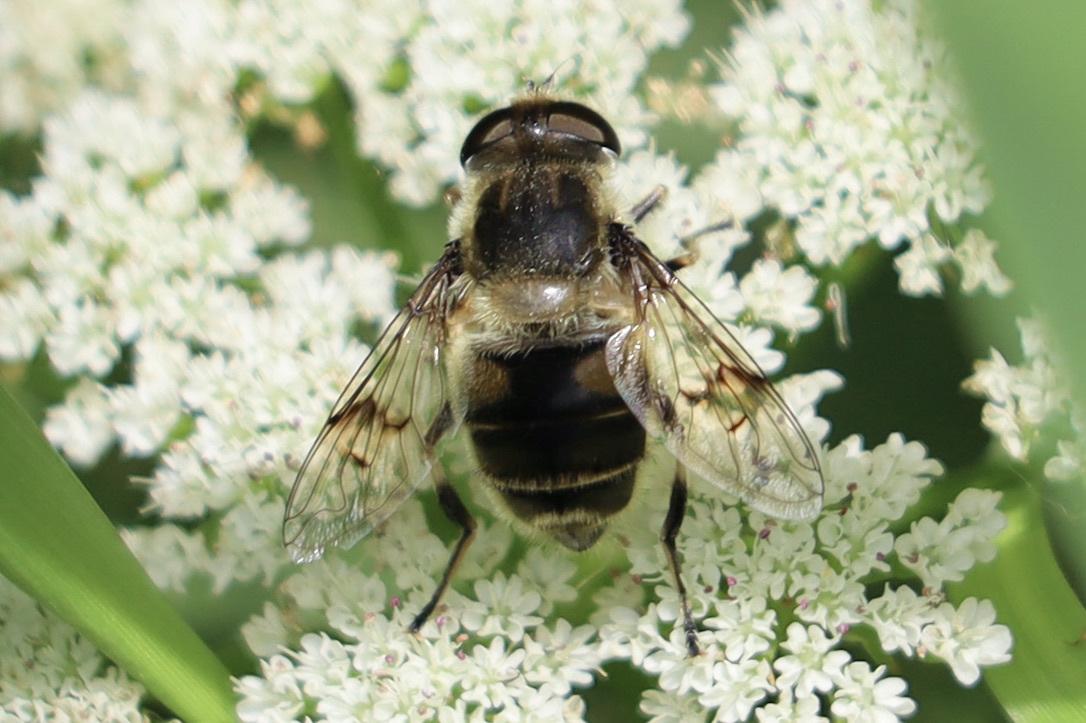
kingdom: Animalia
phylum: Arthropoda
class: Insecta
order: Diptera
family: Syrphidae
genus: Eristalis
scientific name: Eristalis anthophorina
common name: Orange-spotted drone fly
